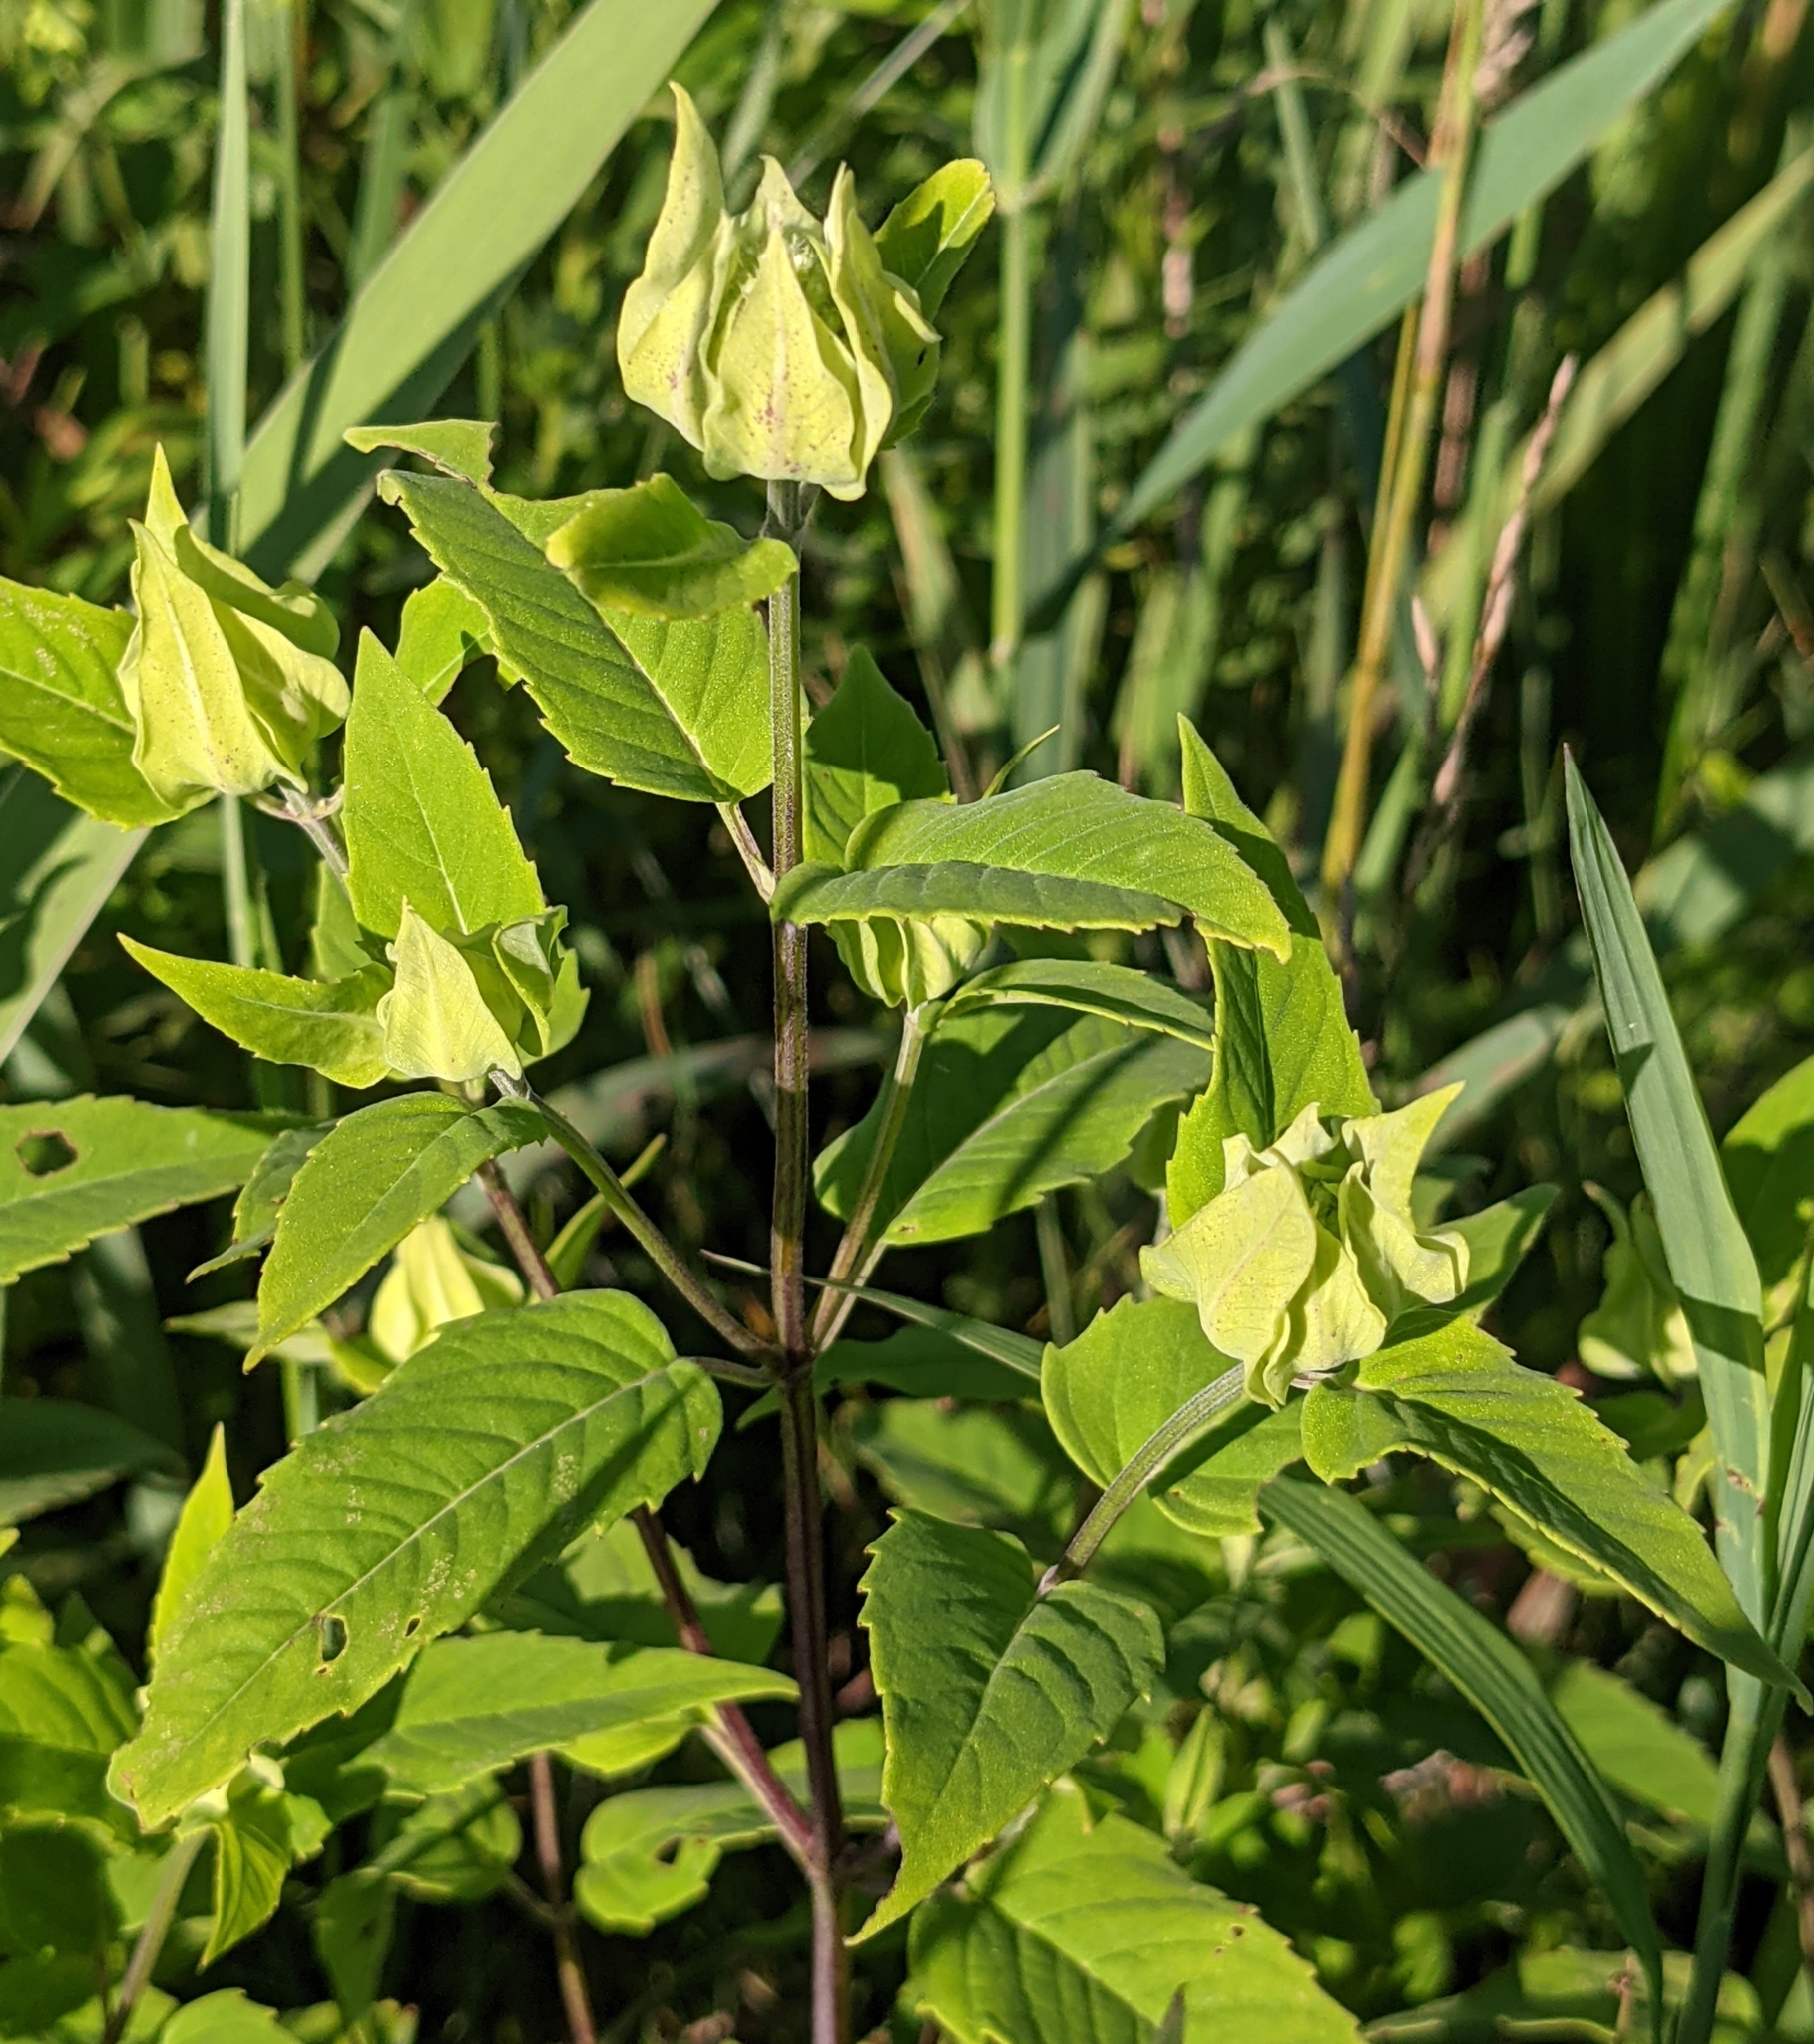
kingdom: Plantae
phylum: Tracheophyta
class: Magnoliopsida
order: Lamiales
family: Lamiaceae
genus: Monarda
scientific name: Monarda fistulosa
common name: Purple beebalm
